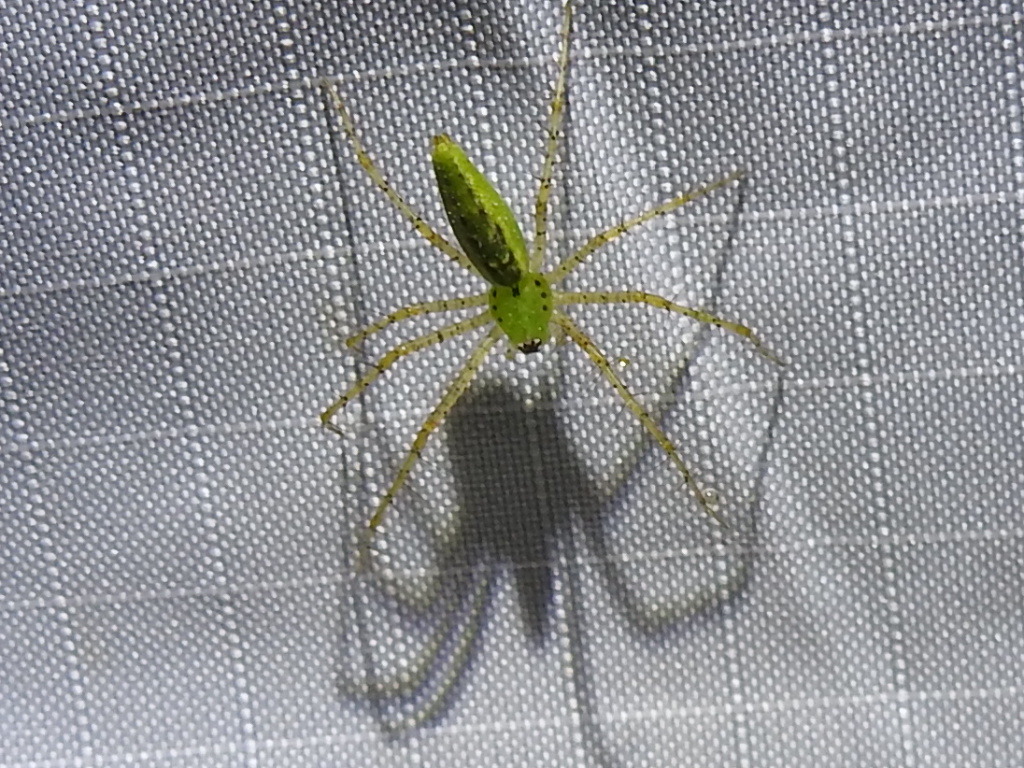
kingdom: Animalia
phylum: Arthropoda
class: Arachnida
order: Araneae
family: Oxyopidae
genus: Peucetia
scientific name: Peucetia viridans
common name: Lynx spiders
